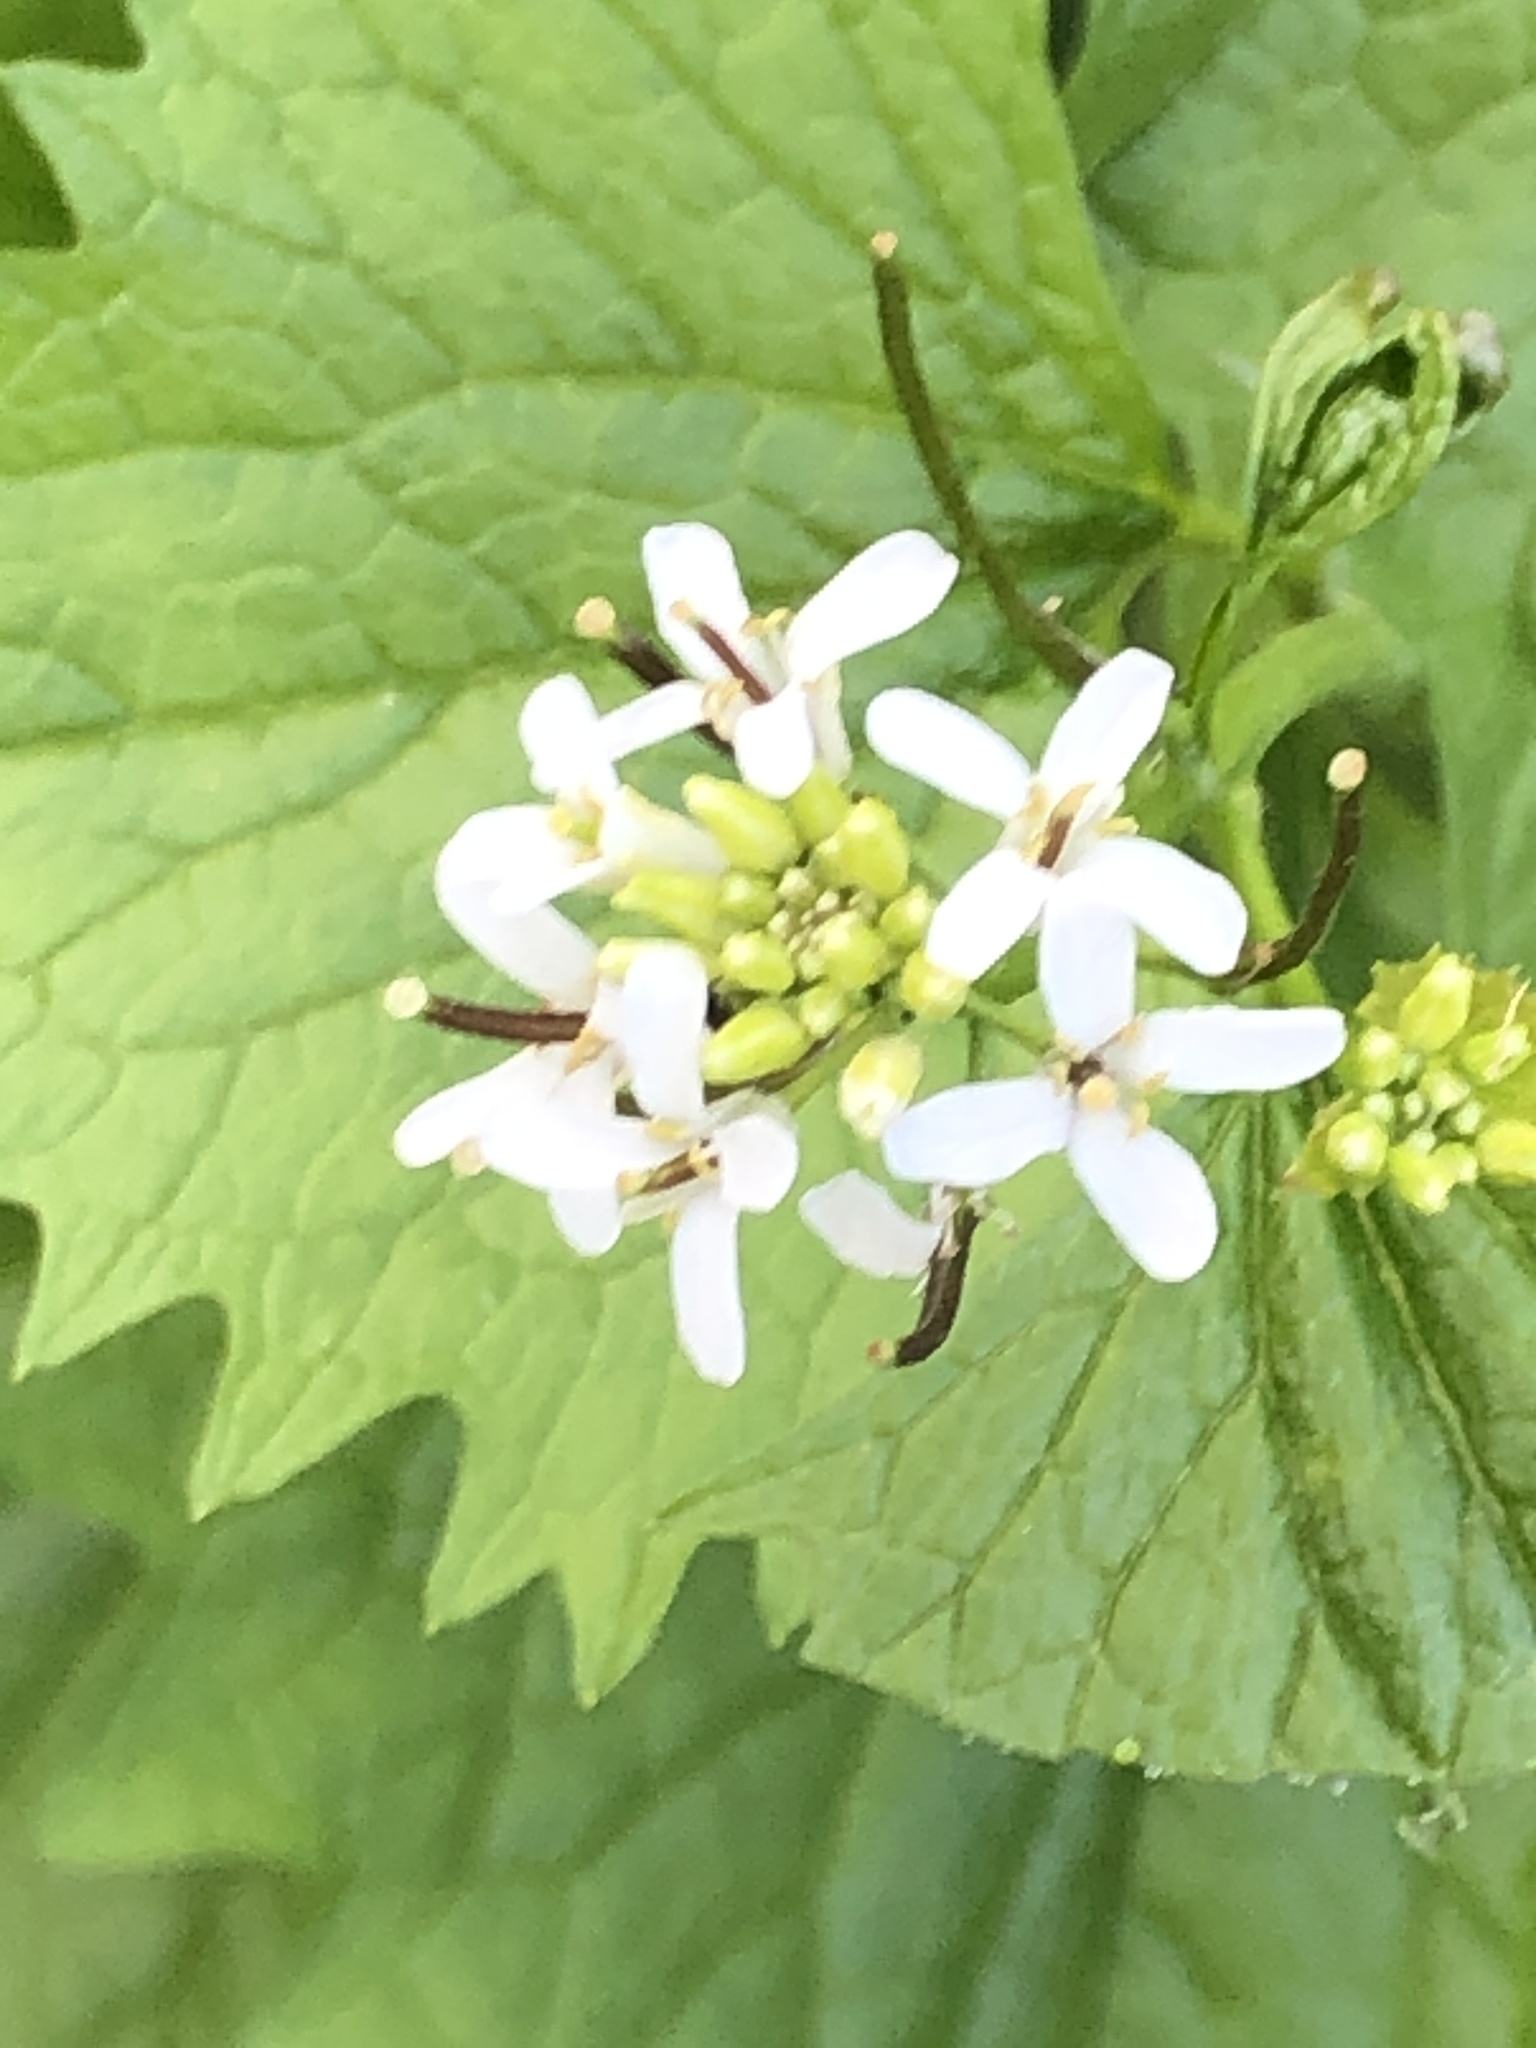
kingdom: Plantae
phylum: Tracheophyta
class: Magnoliopsida
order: Brassicales
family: Brassicaceae
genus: Alliaria
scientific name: Alliaria petiolata
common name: Garlic mustard
